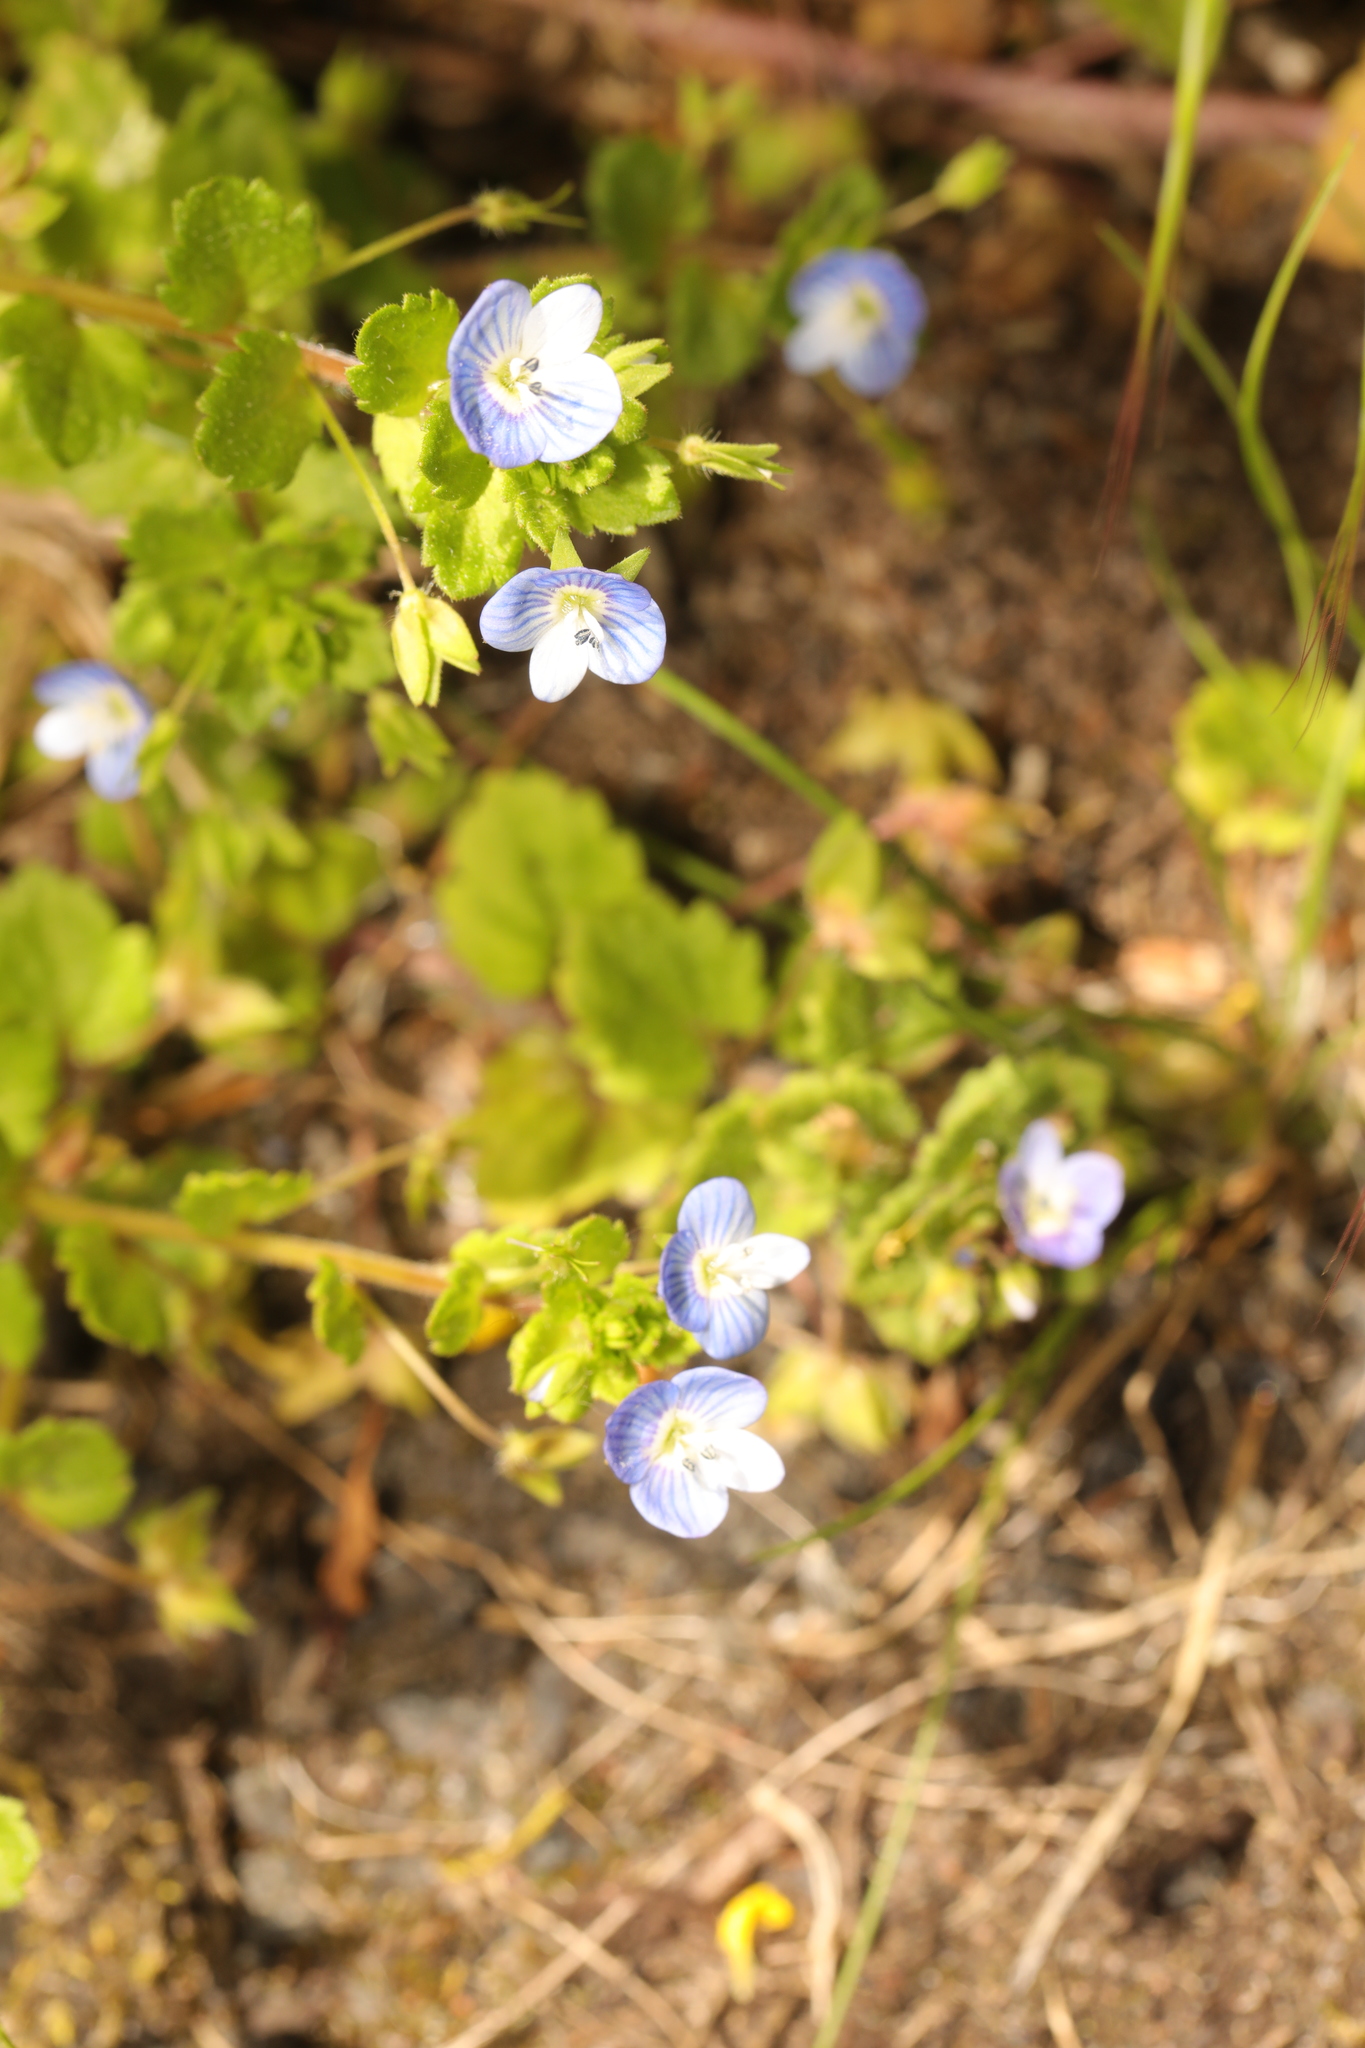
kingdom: Plantae
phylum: Tracheophyta
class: Magnoliopsida
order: Lamiales
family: Plantaginaceae
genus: Veronica
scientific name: Veronica persica
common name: Common field-speedwell
